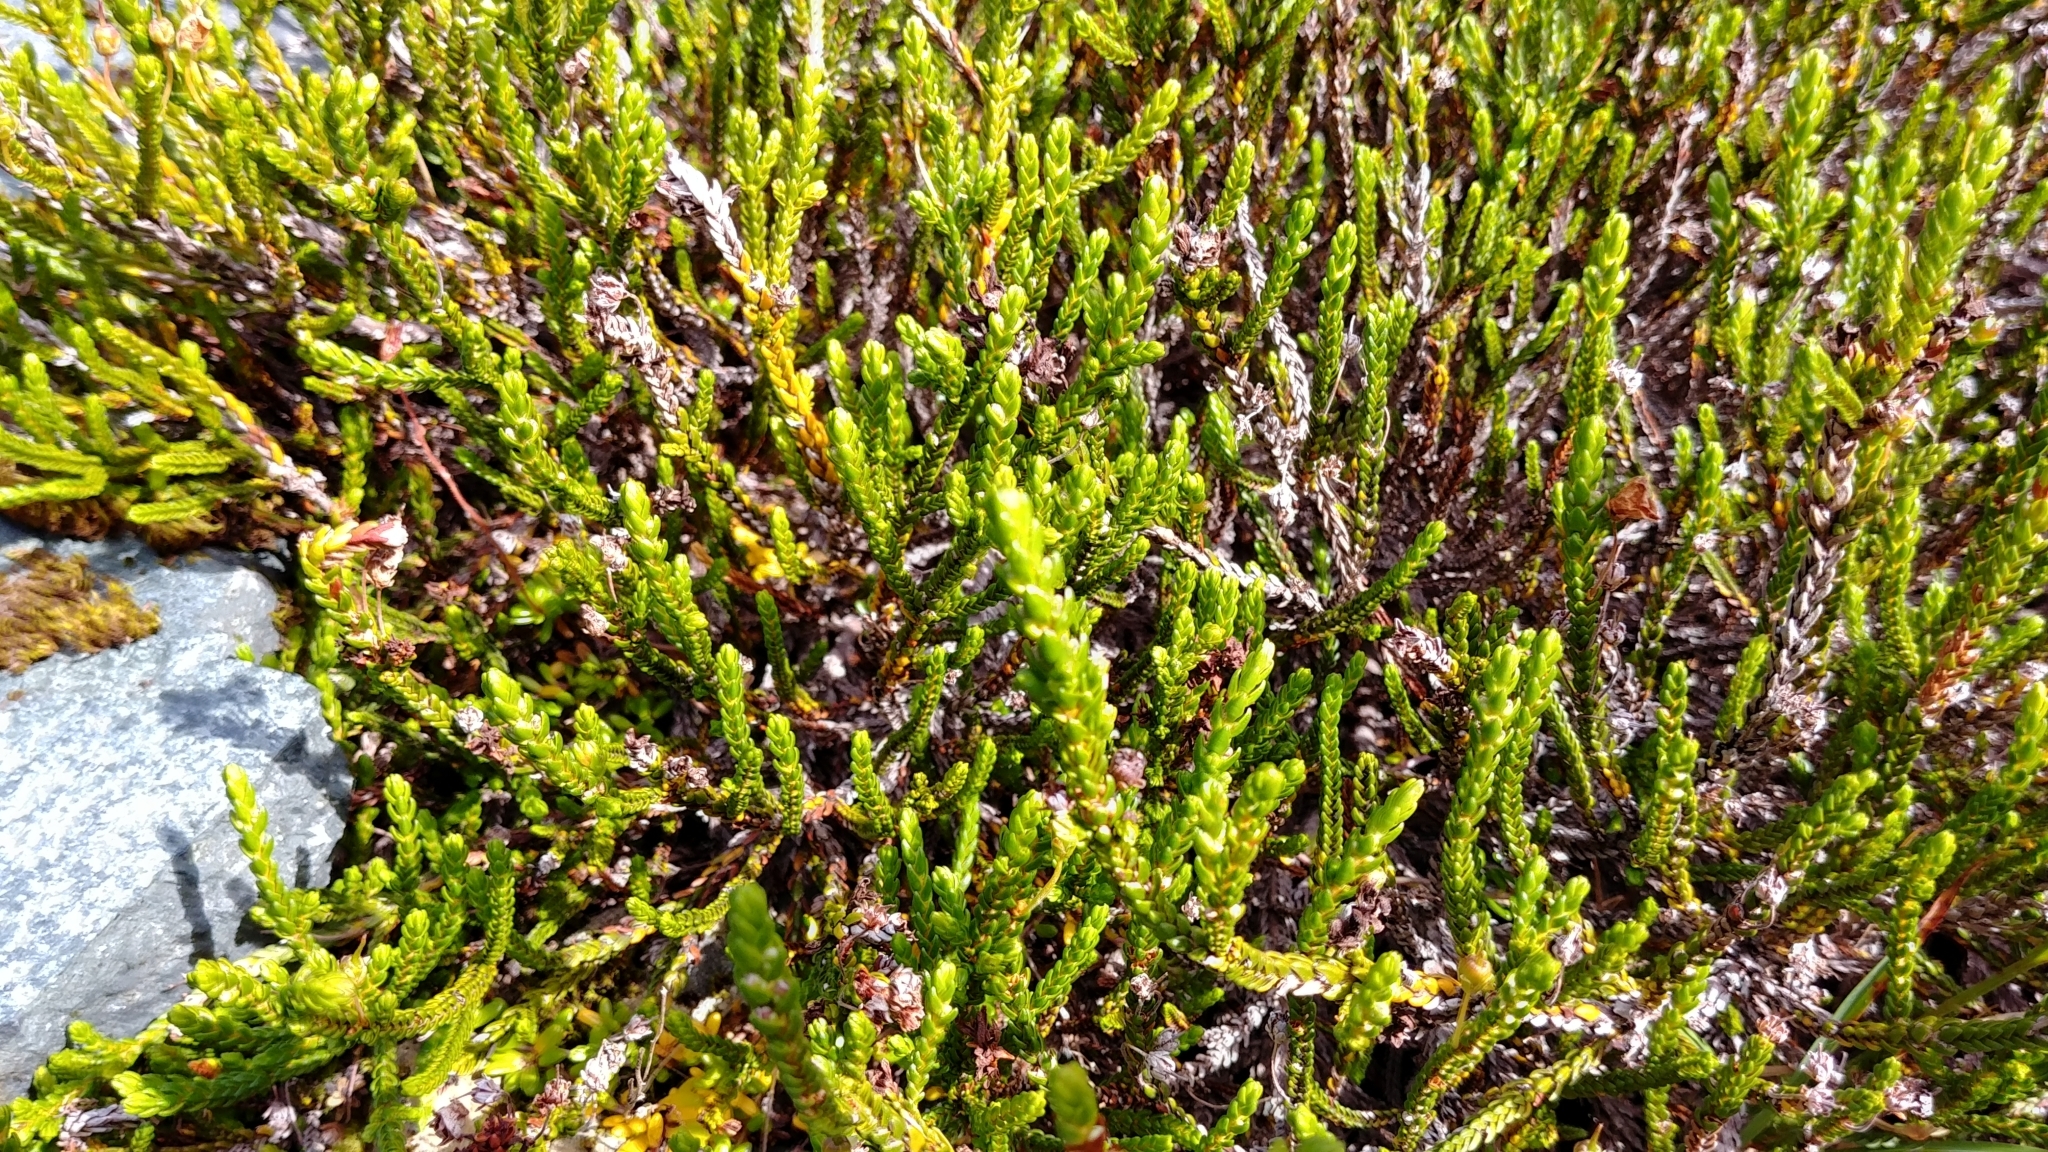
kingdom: Plantae
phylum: Tracheophyta
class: Magnoliopsida
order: Ericales
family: Ericaceae
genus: Cassiope
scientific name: Cassiope mertensiana
